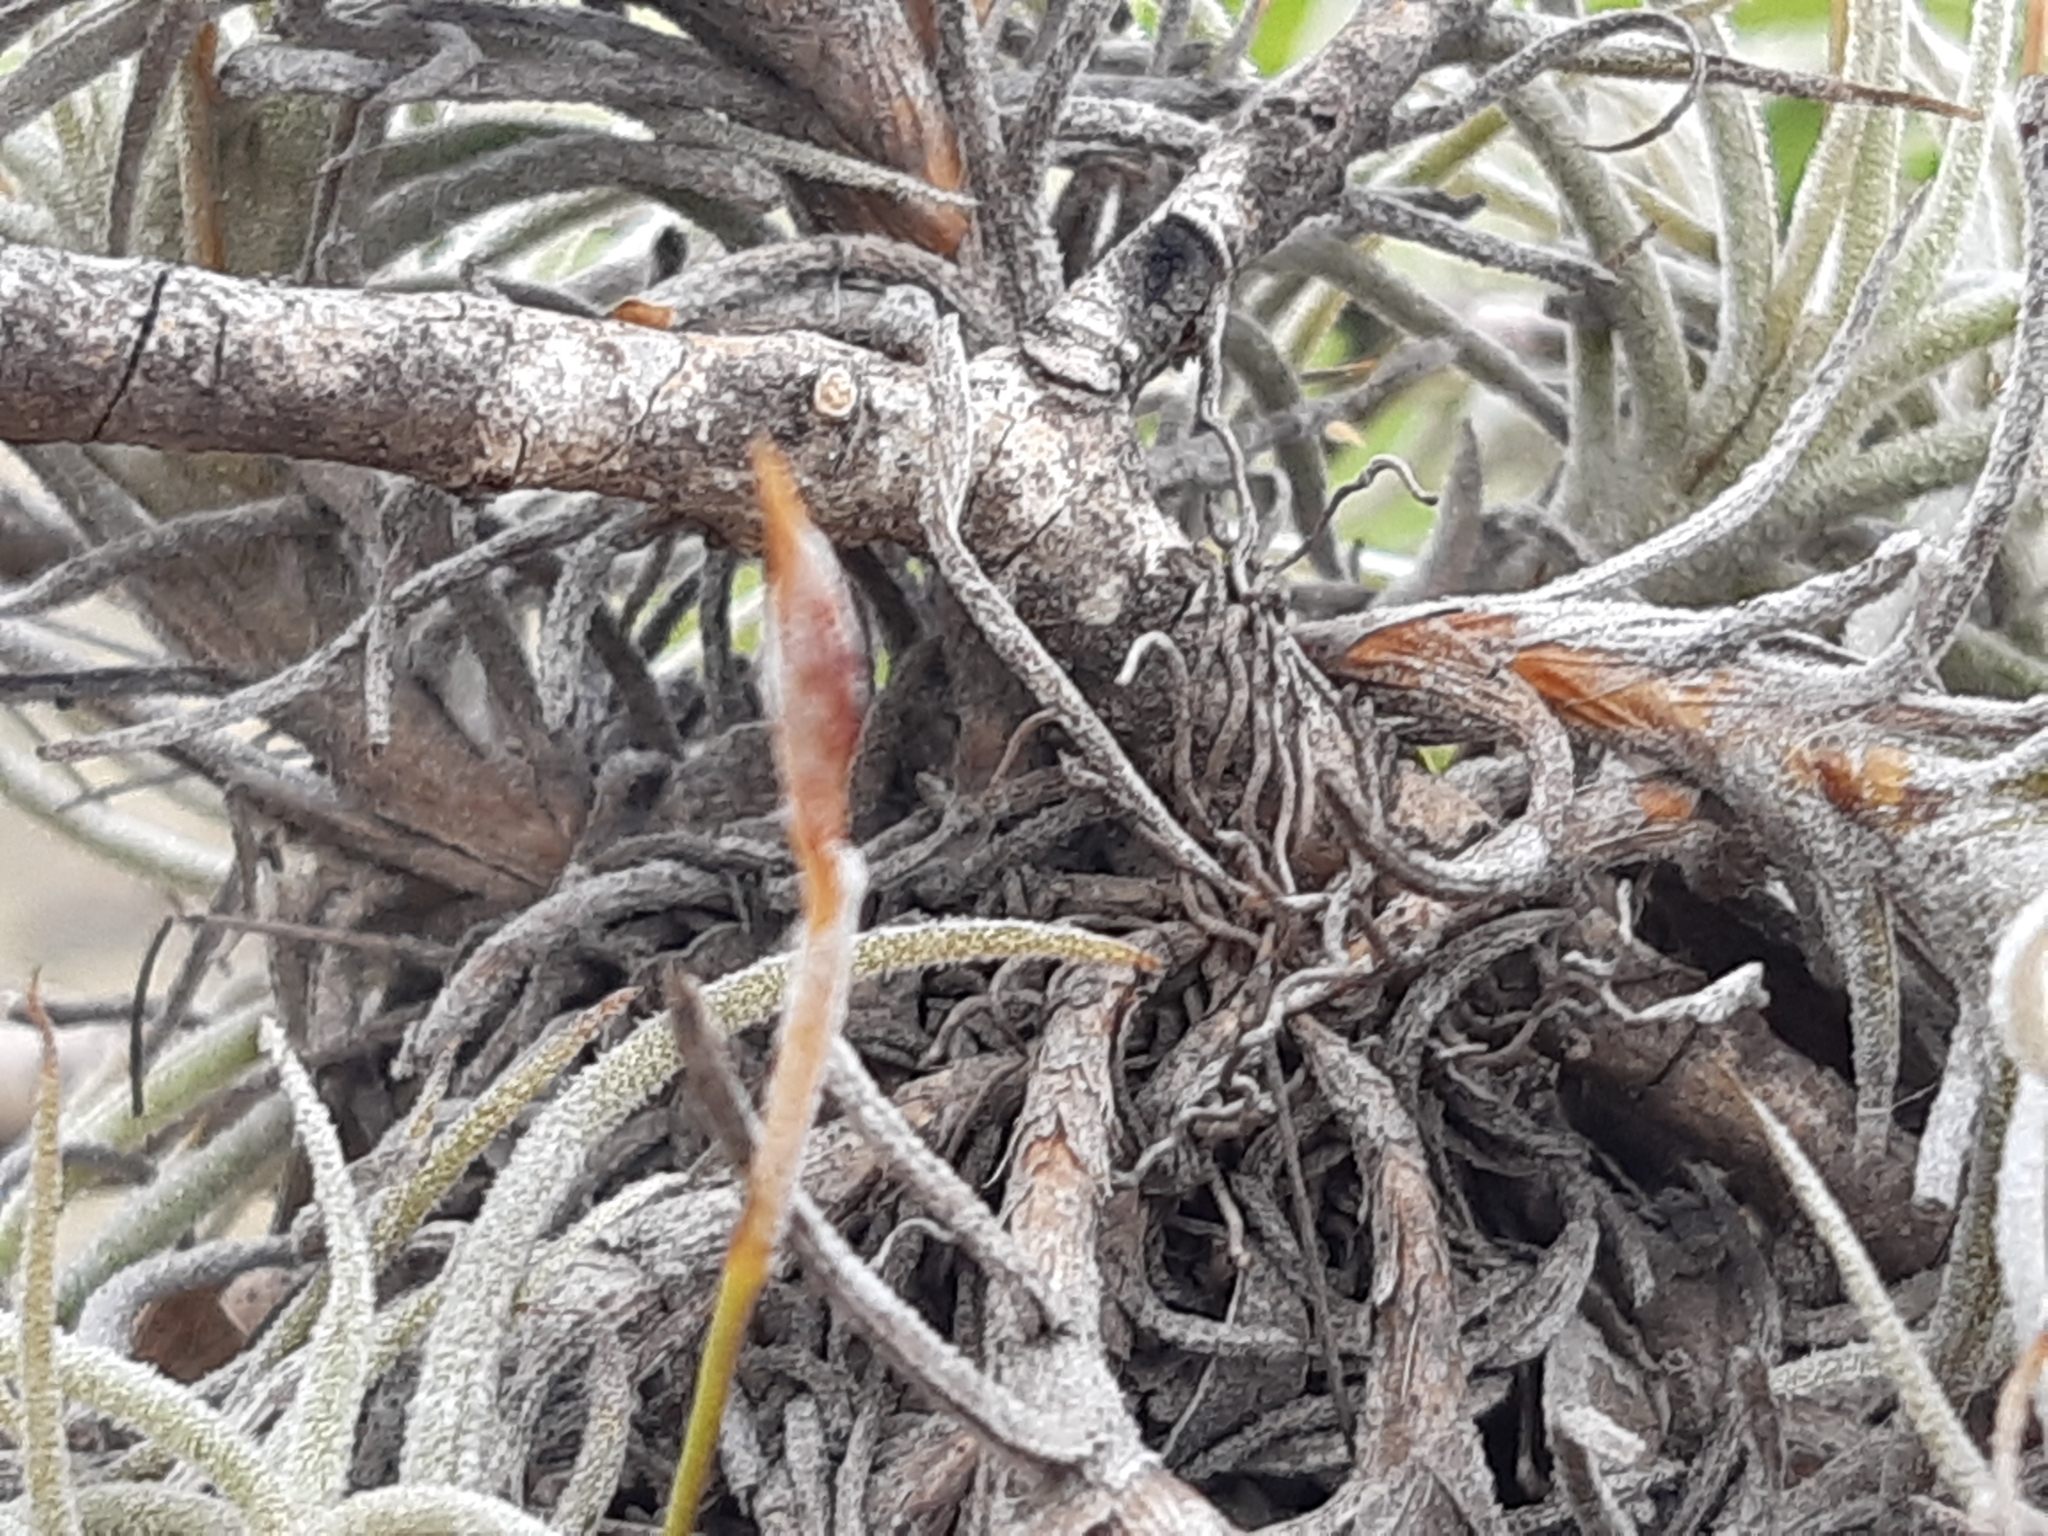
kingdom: Plantae
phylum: Tracheophyta
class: Liliopsida
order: Poales
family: Bromeliaceae
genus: Tillandsia
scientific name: Tillandsia recurvata
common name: Small ballmoss
